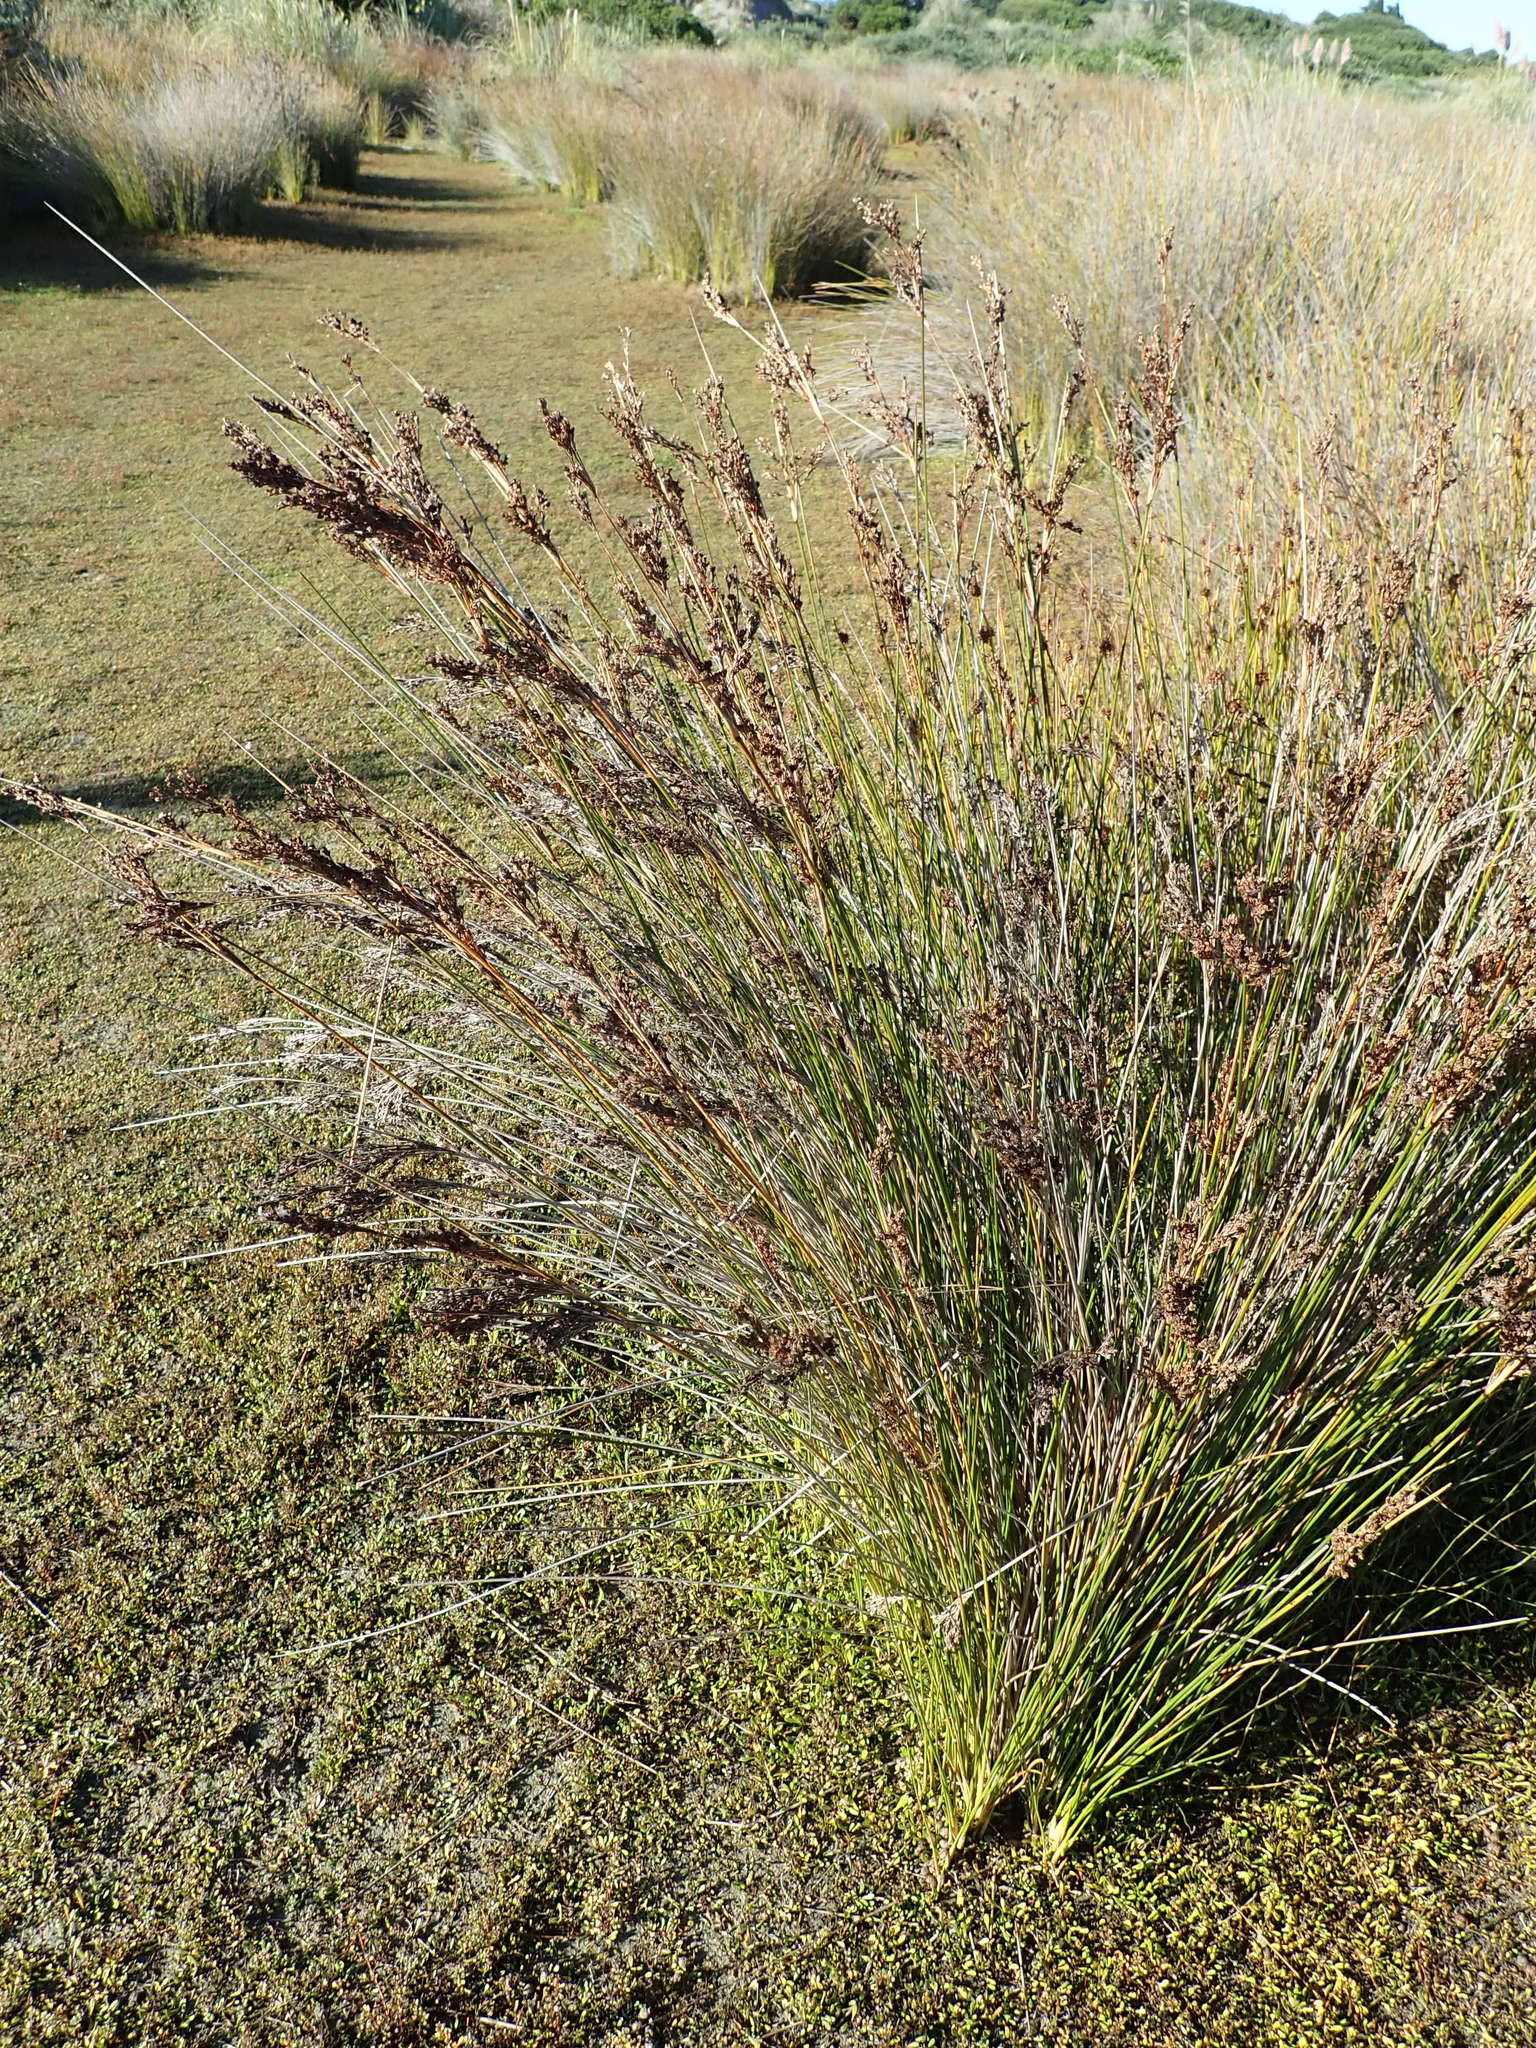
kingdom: Plantae
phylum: Tracheophyta
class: Liliopsida
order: Poales
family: Juncaceae
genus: Juncus
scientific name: Juncus kraussii
